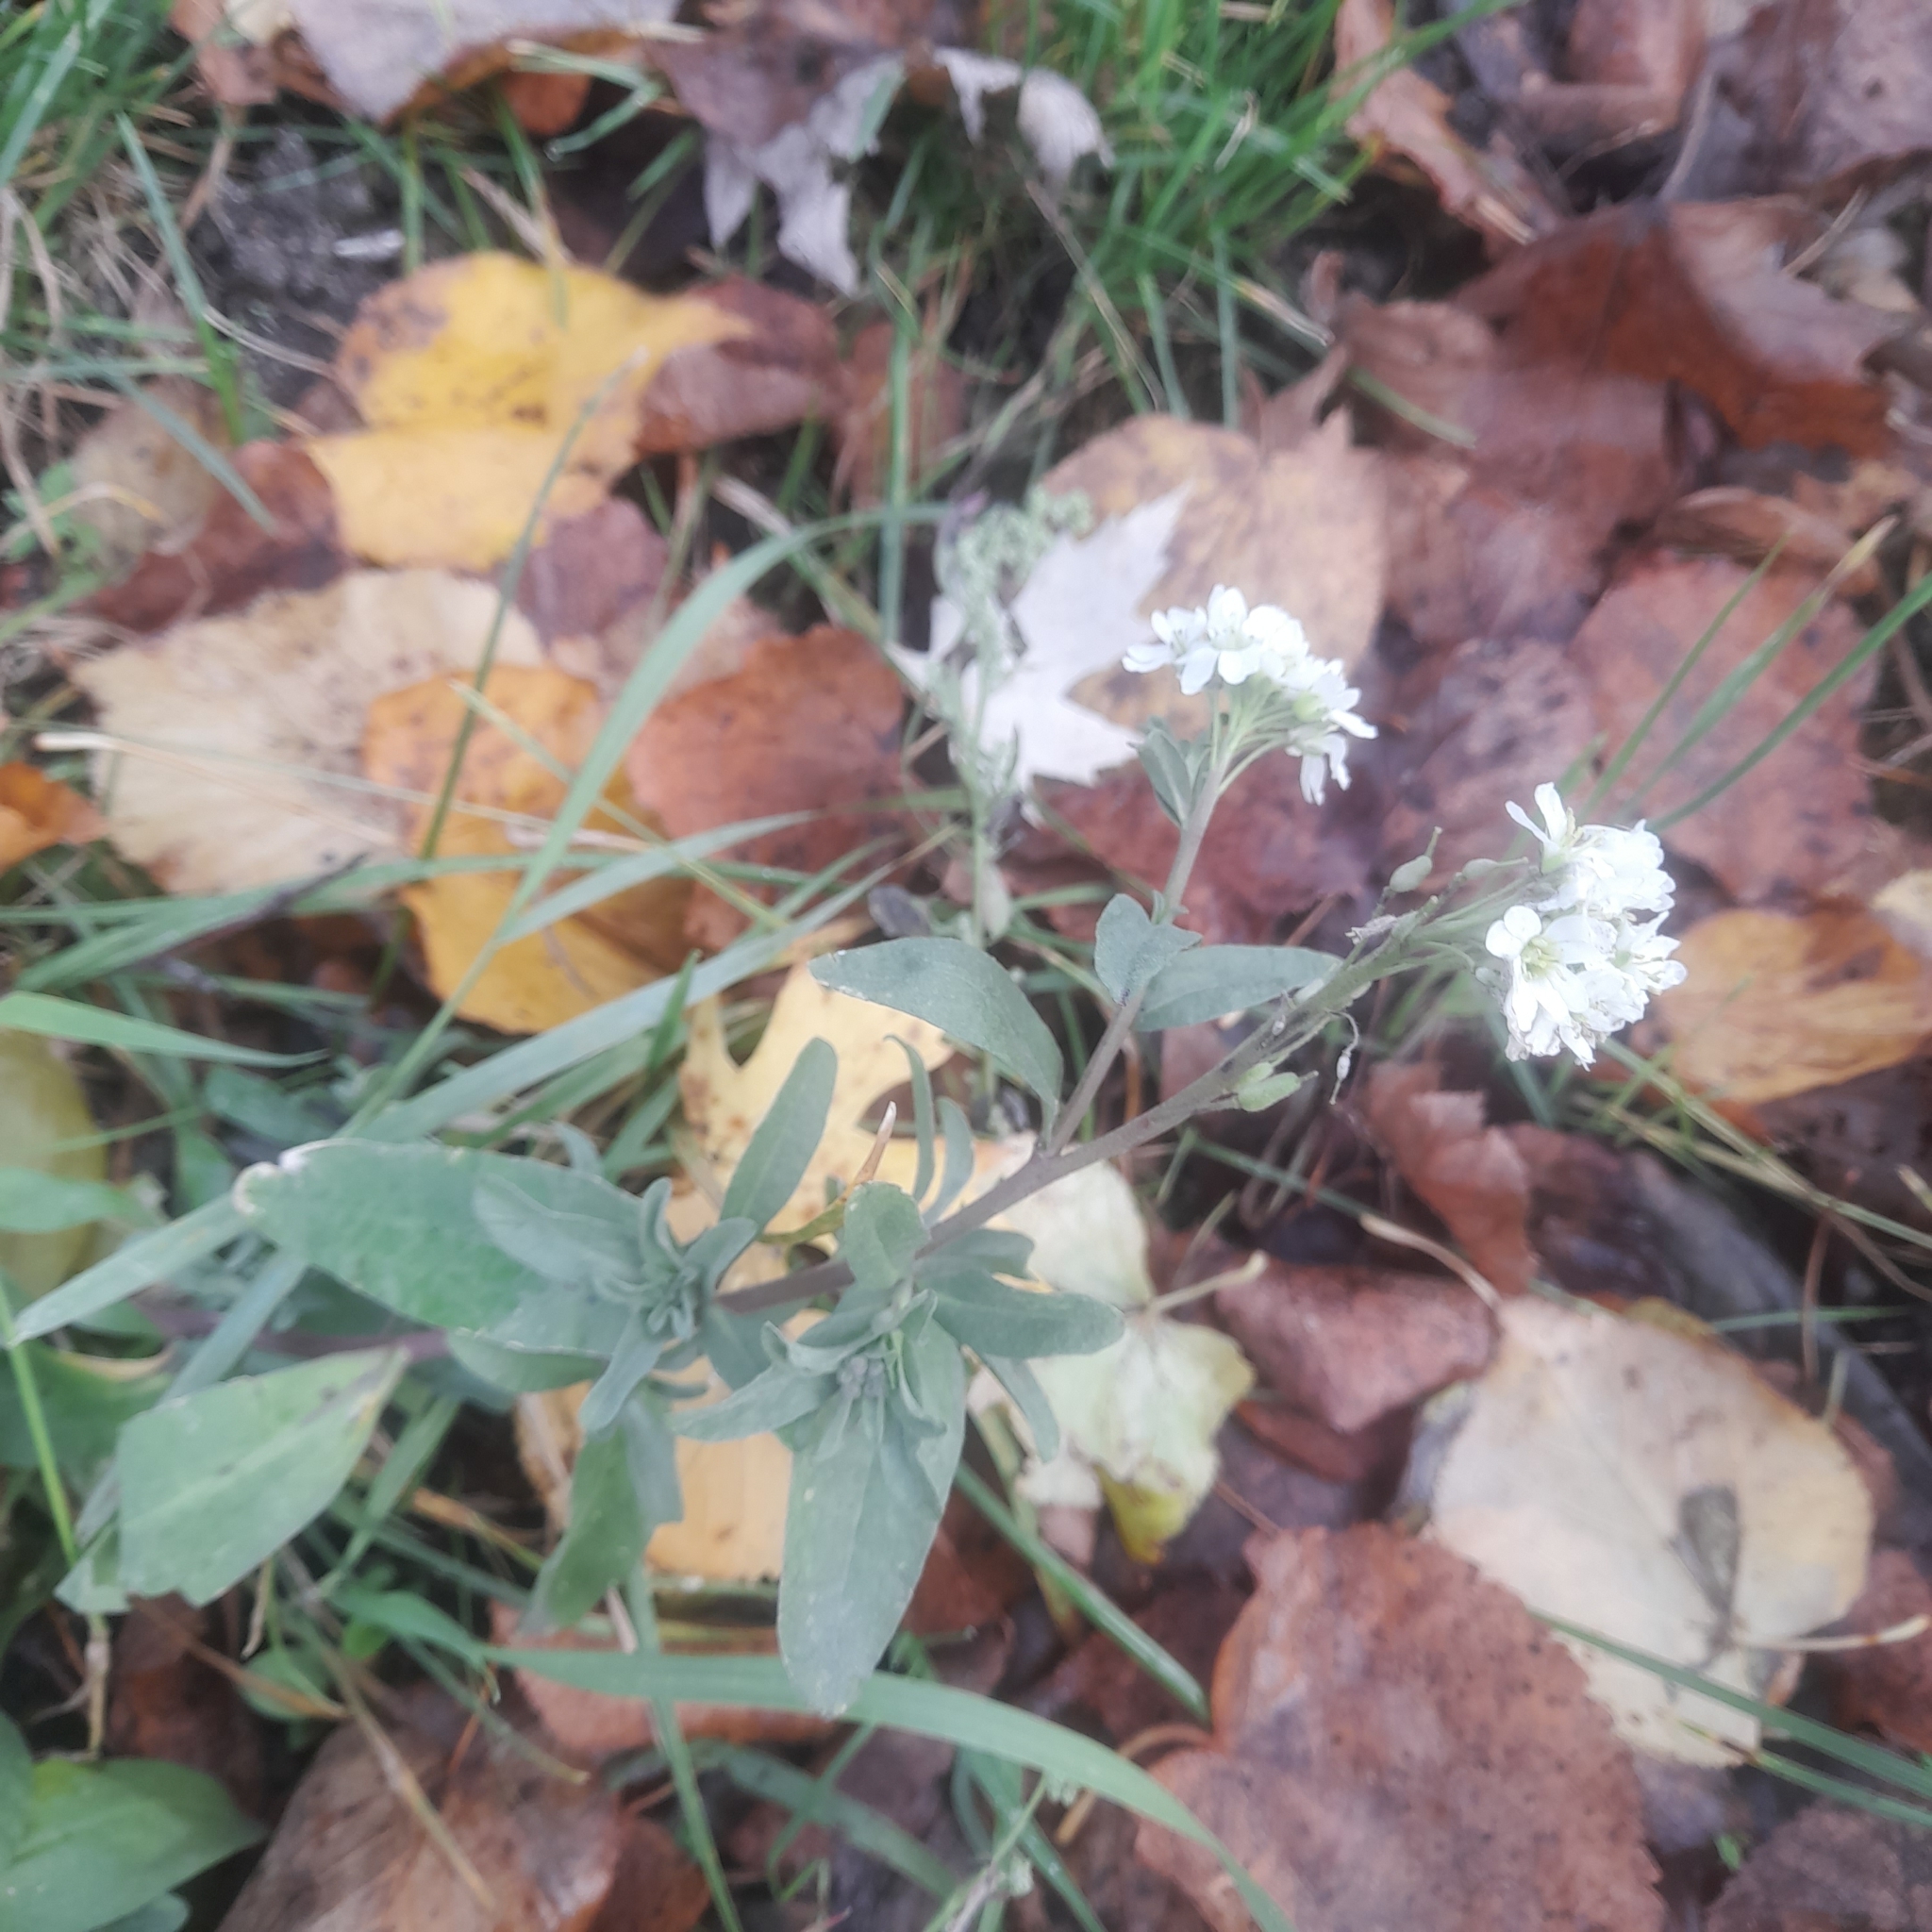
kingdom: Plantae
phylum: Tracheophyta
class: Magnoliopsida
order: Brassicales
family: Brassicaceae
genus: Berteroa
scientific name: Berteroa incana
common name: Hoary alison
